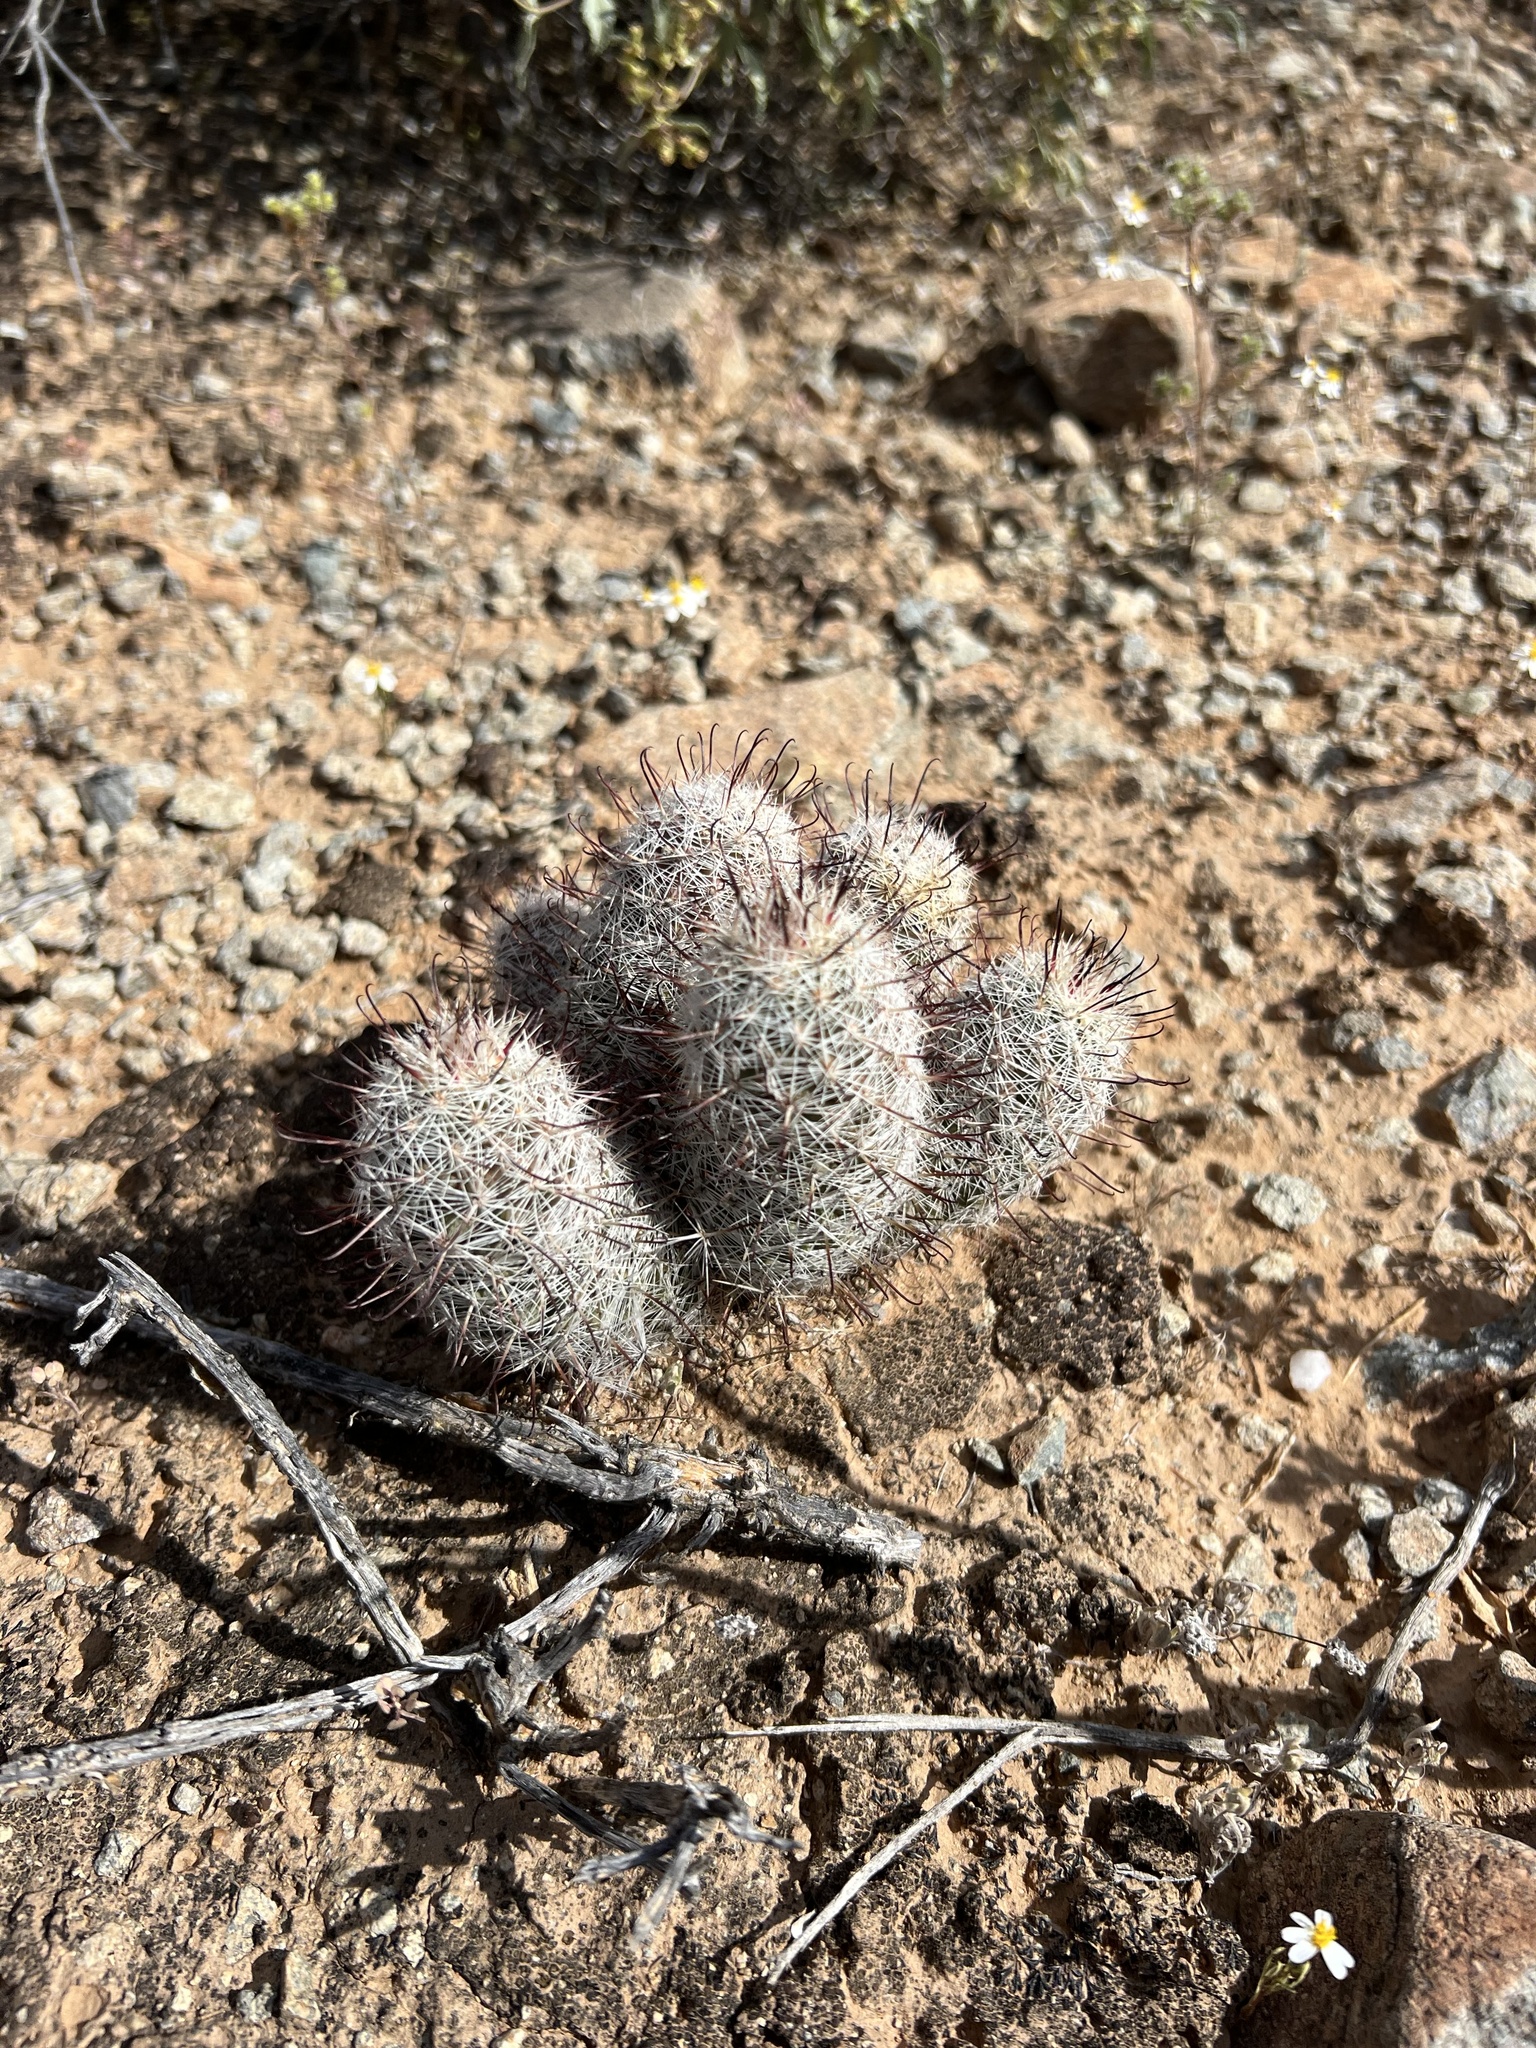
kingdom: Plantae
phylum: Tracheophyta
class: Magnoliopsida
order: Caryophyllales
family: Cactaceae
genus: Cochemiea
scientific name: Cochemiea grahamii
